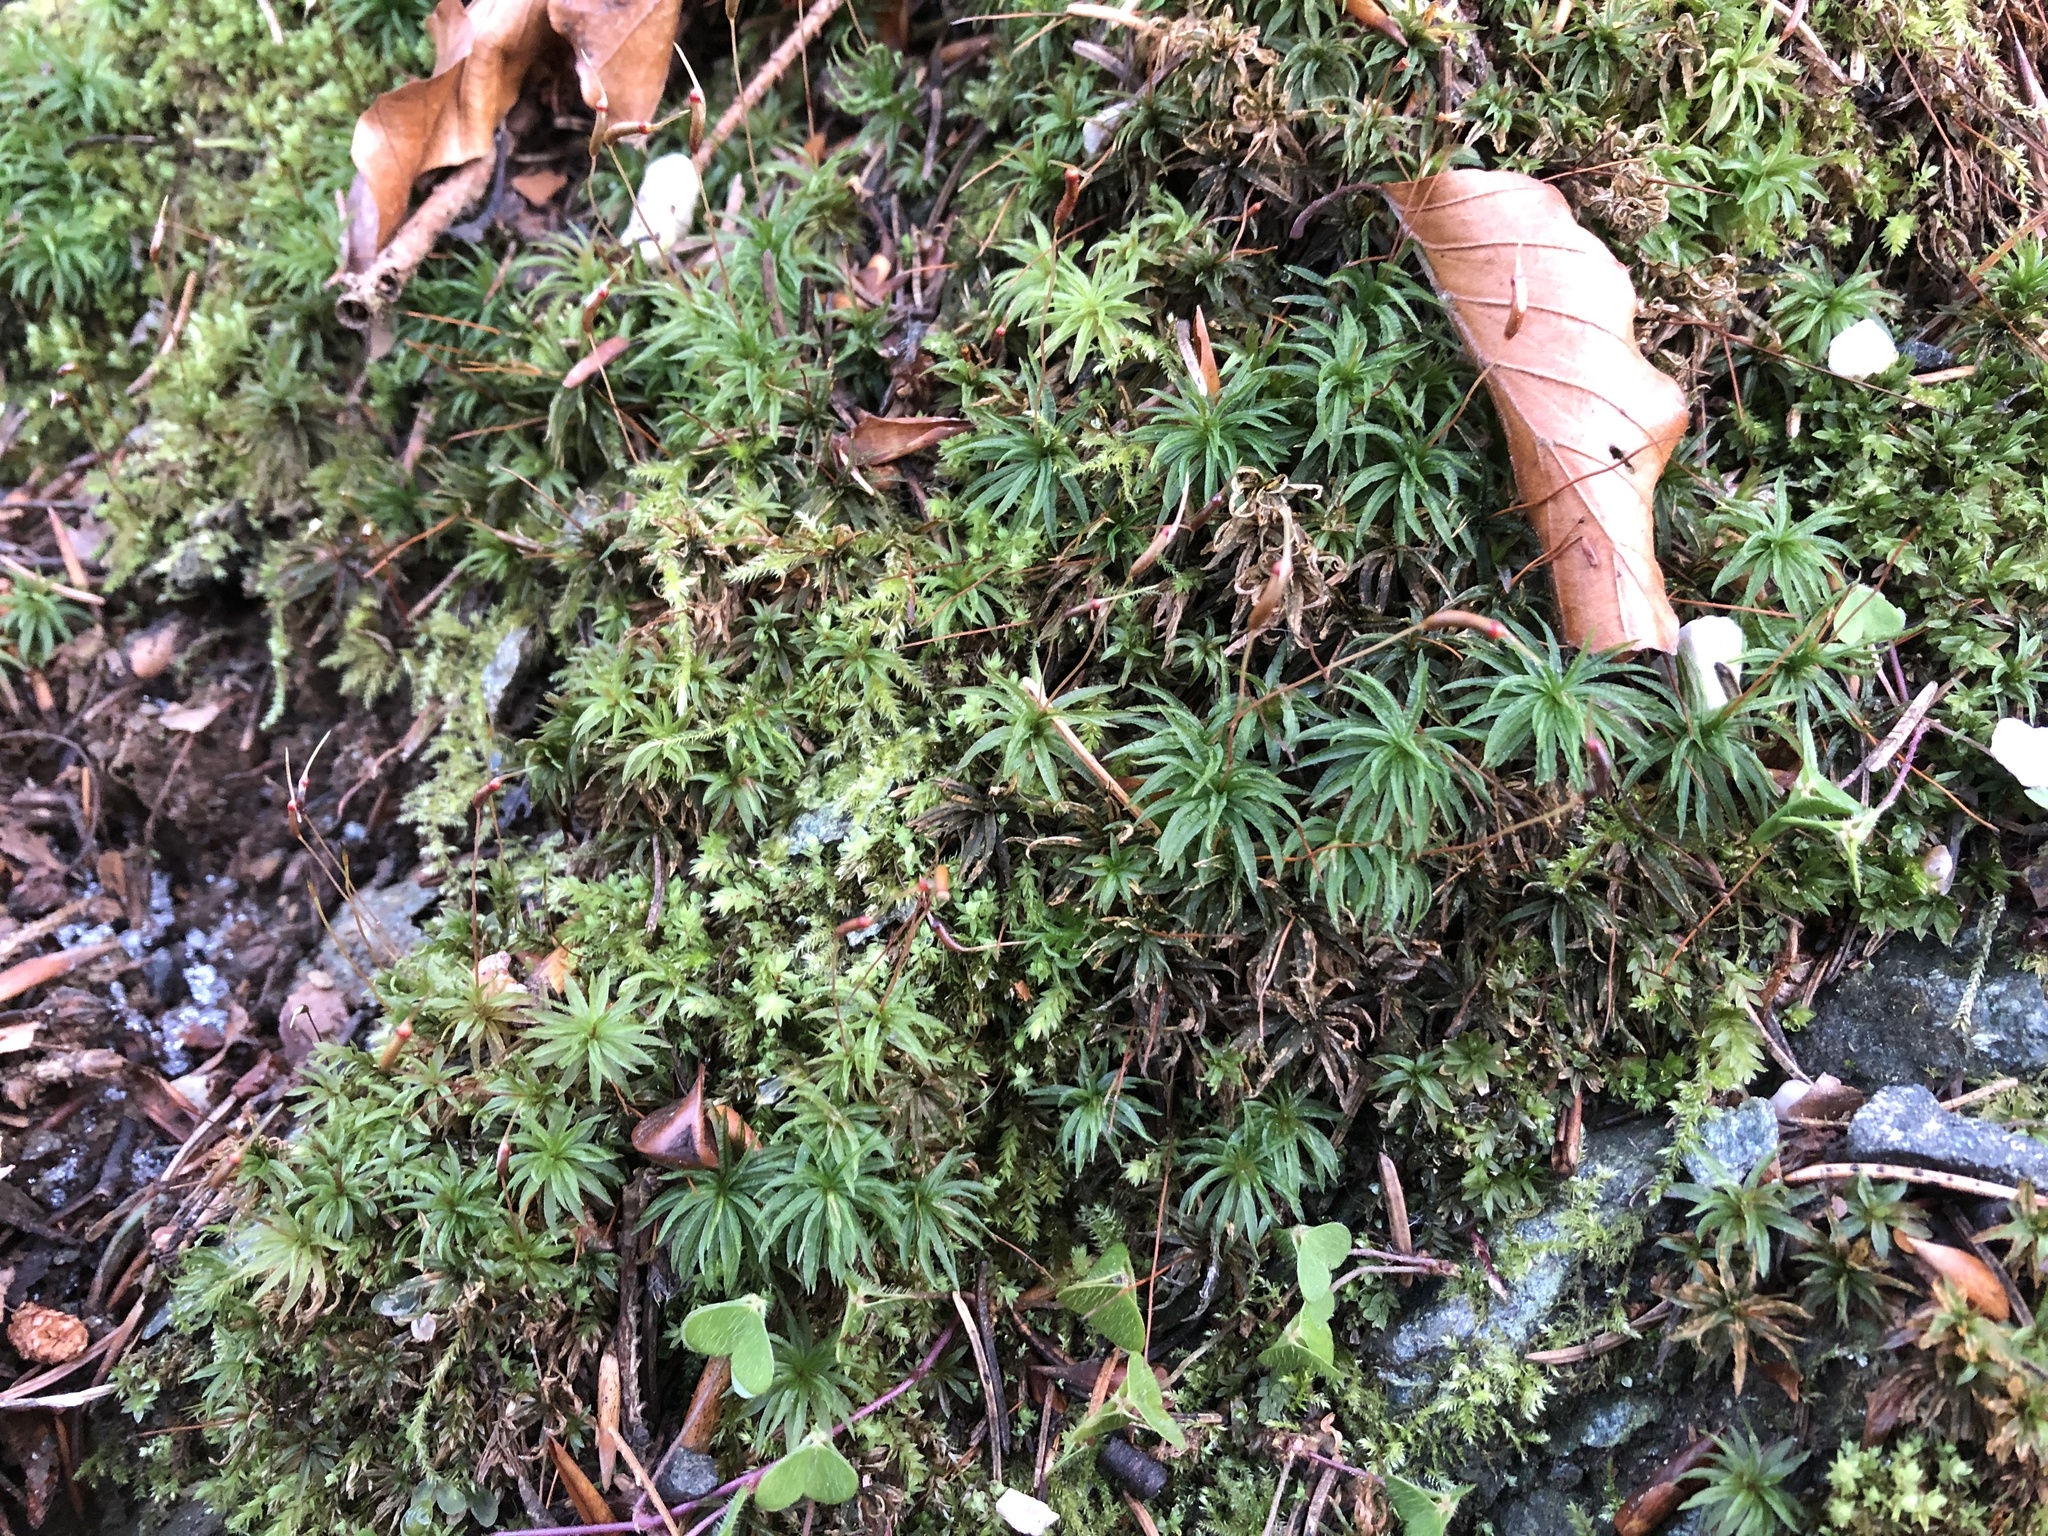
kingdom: Plantae
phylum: Bryophyta
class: Polytrichopsida
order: Polytrichales
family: Polytrichaceae
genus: Atrichum
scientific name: Atrichum undulatum
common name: Common smoothcap
